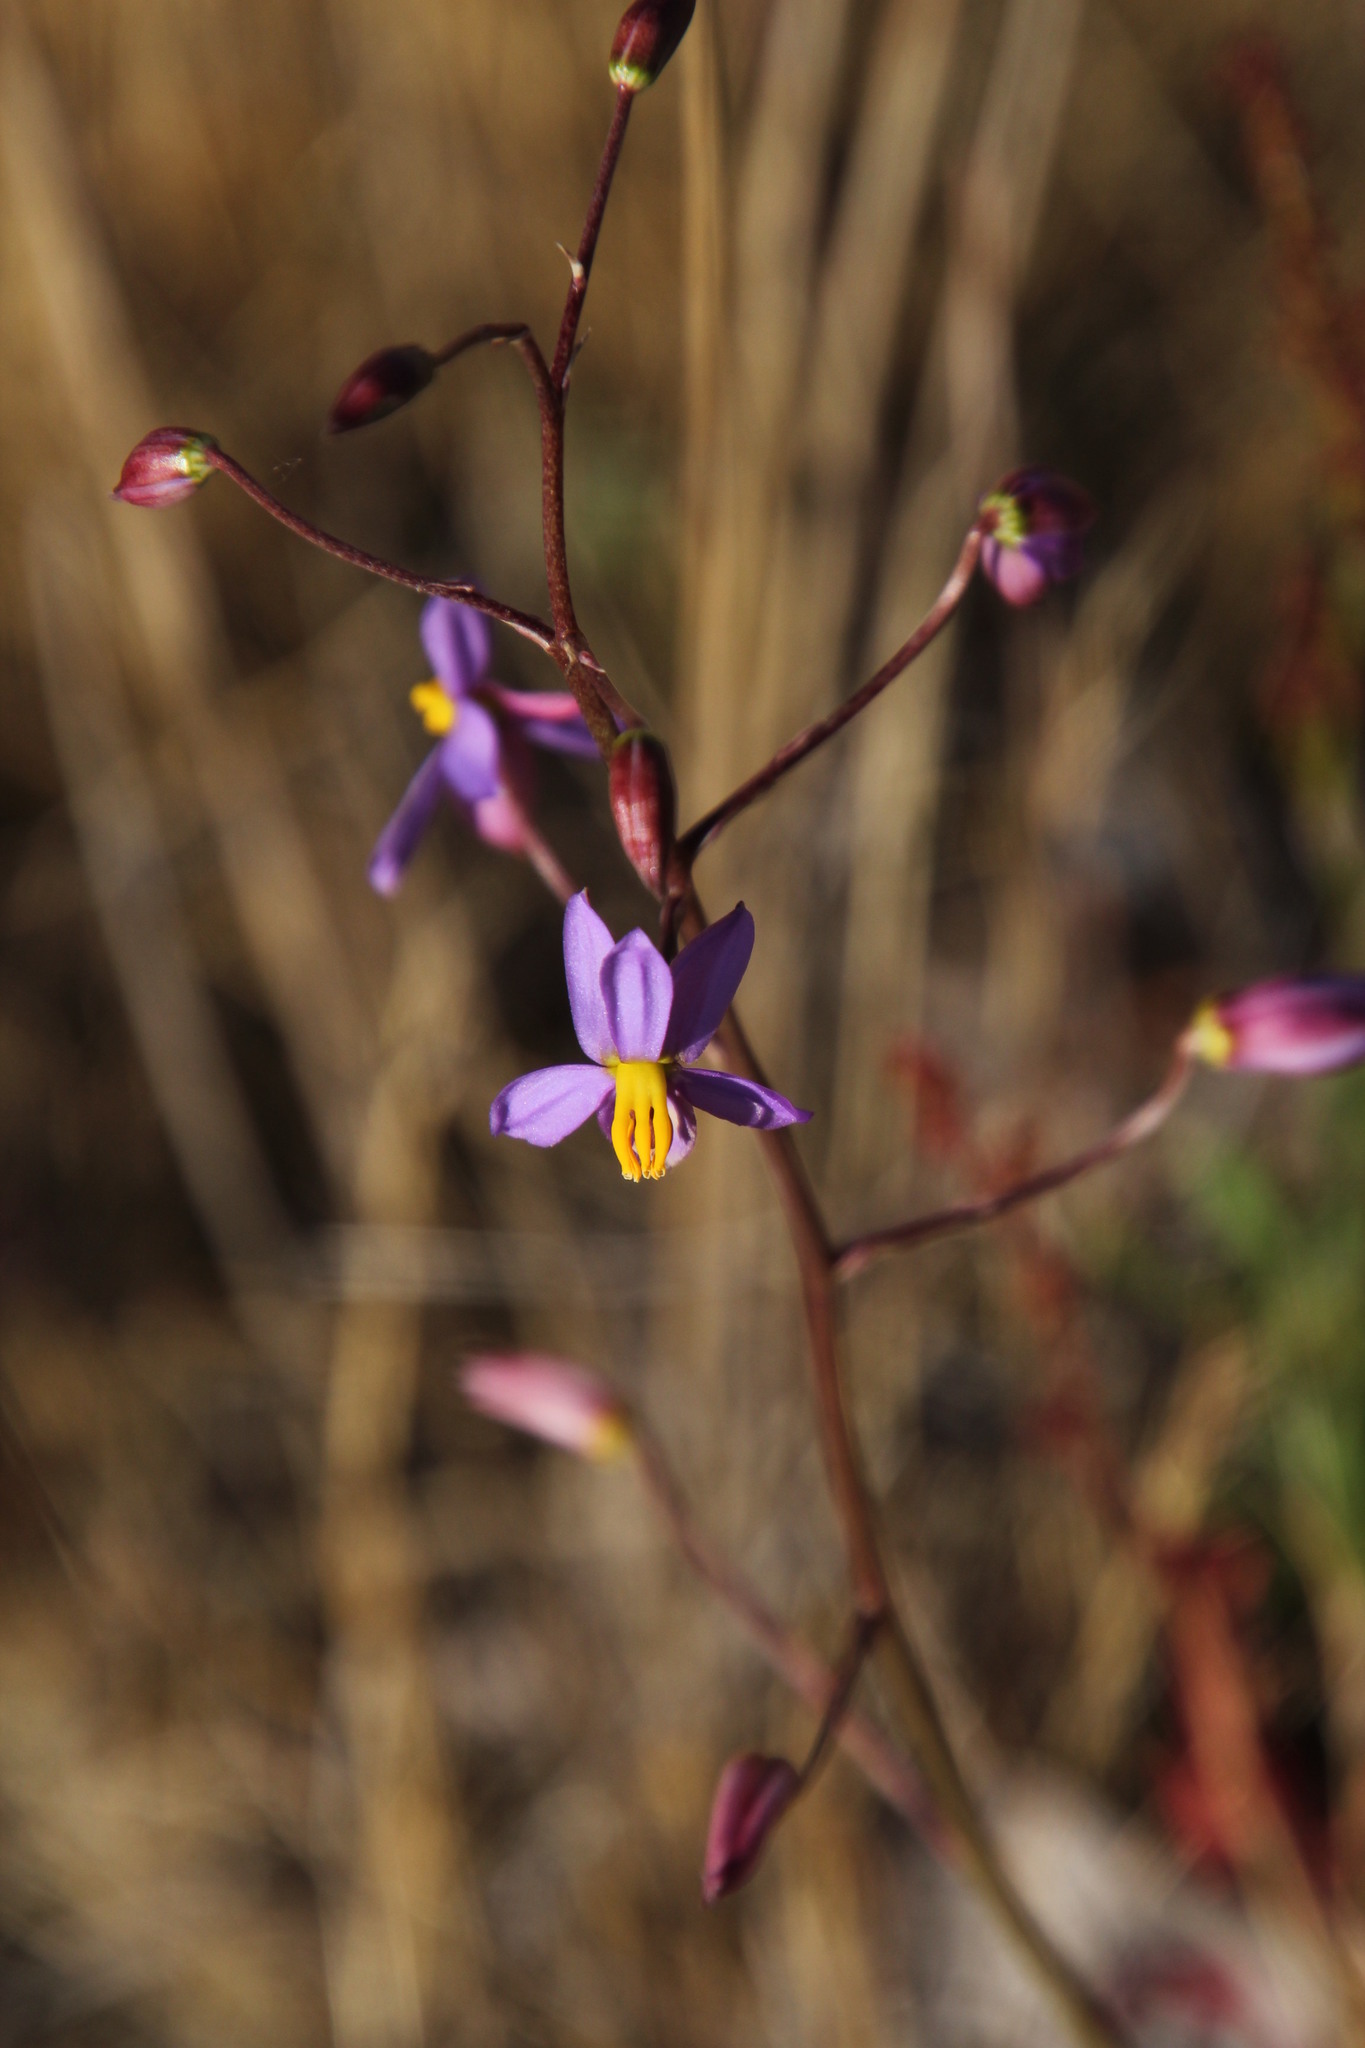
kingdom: Plantae
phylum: Tracheophyta
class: Liliopsida
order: Asparagales
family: Tecophilaeaceae
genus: Cyanella
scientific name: Cyanella hyacinthoides
